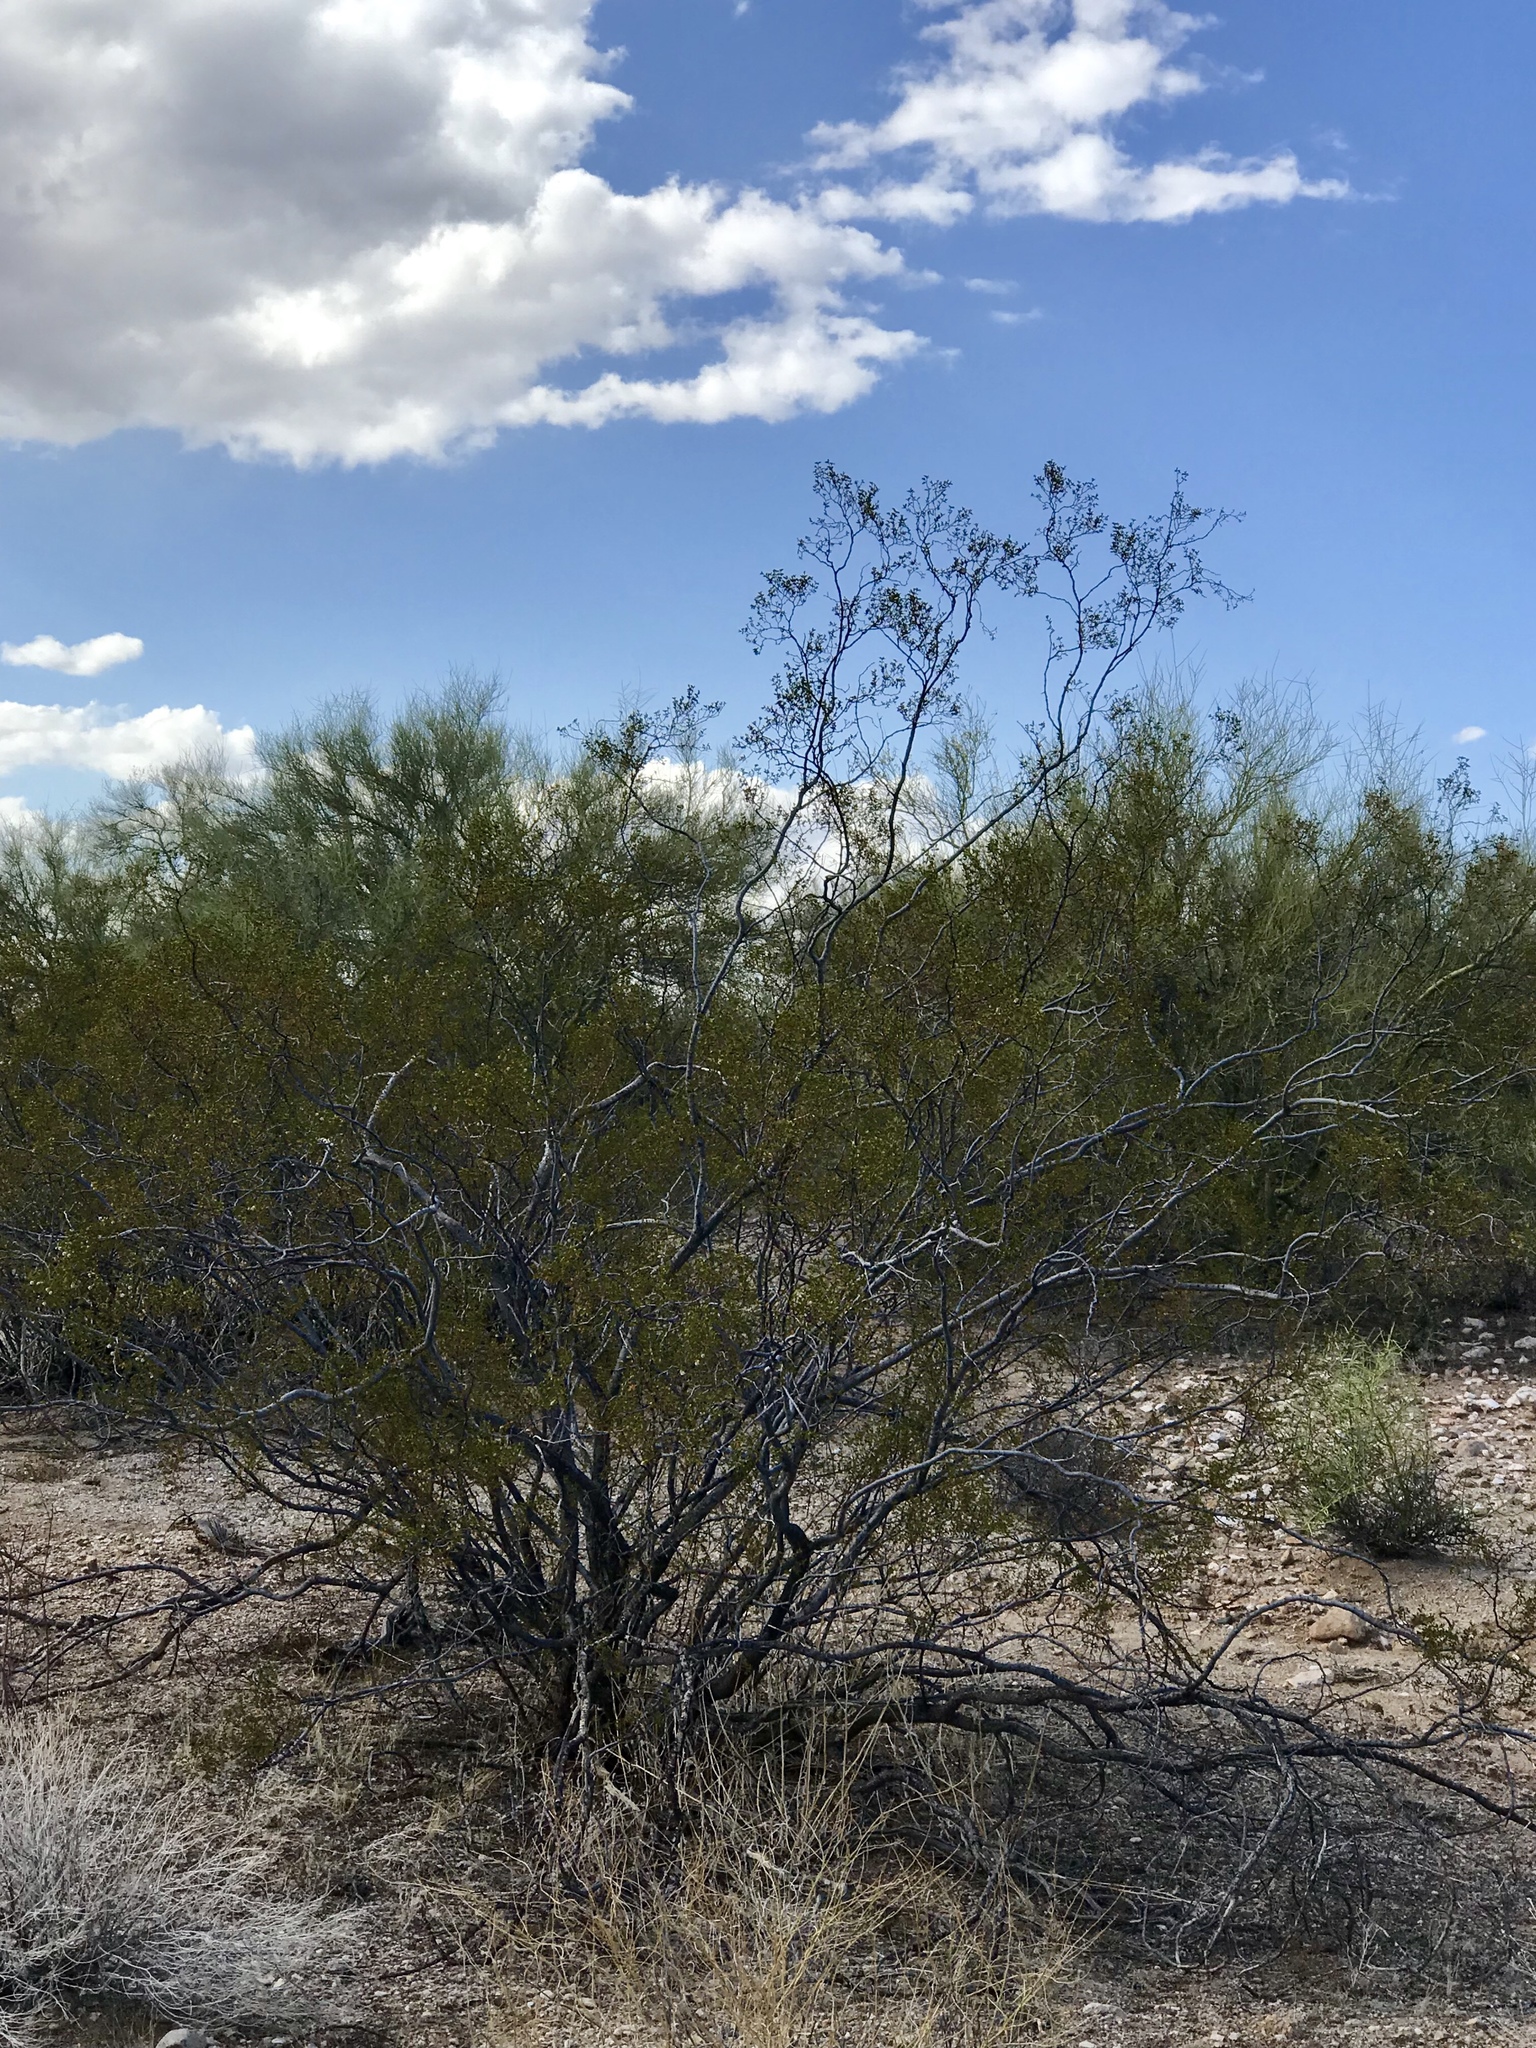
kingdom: Plantae
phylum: Tracheophyta
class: Magnoliopsida
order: Zygophyllales
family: Zygophyllaceae
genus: Larrea
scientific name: Larrea tridentata
